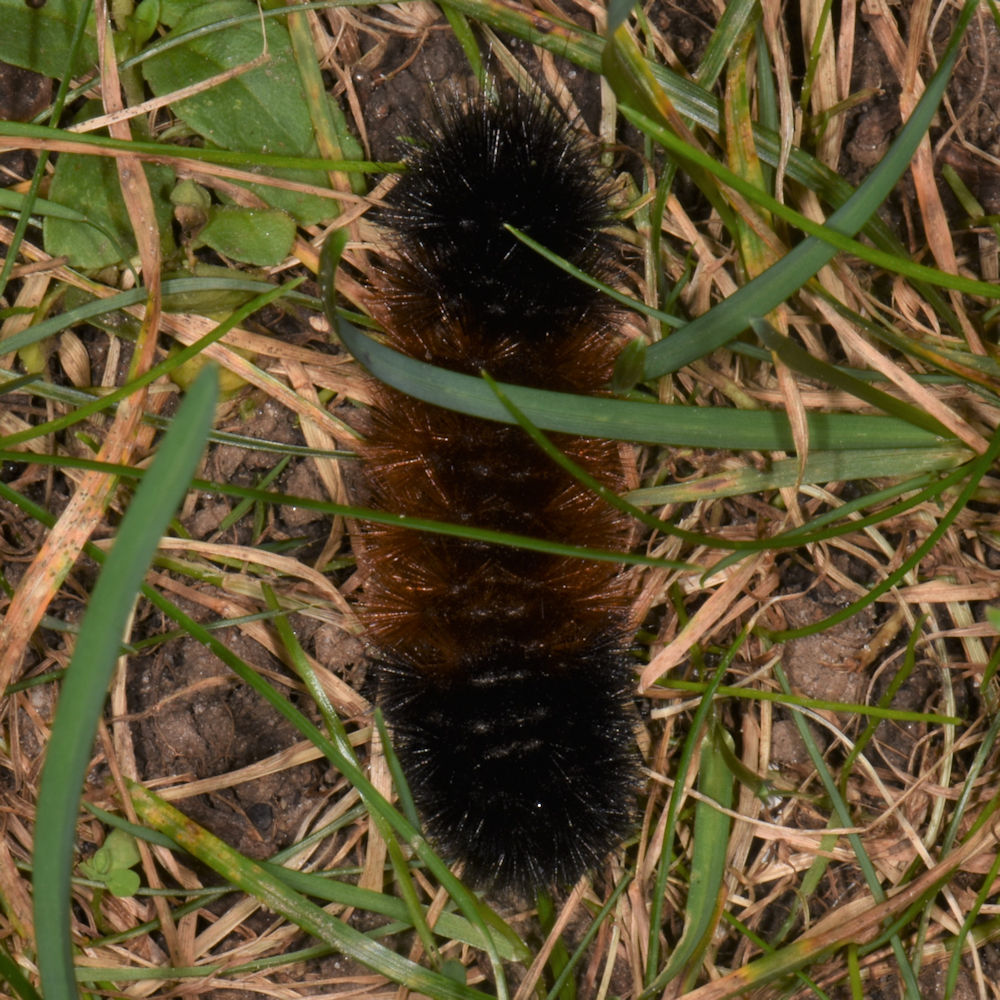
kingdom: Animalia
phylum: Arthropoda
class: Insecta
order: Lepidoptera
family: Erebidae
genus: Pyrrharctia
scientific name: Pyrrharctia isabella
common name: Isabella tiger moth
